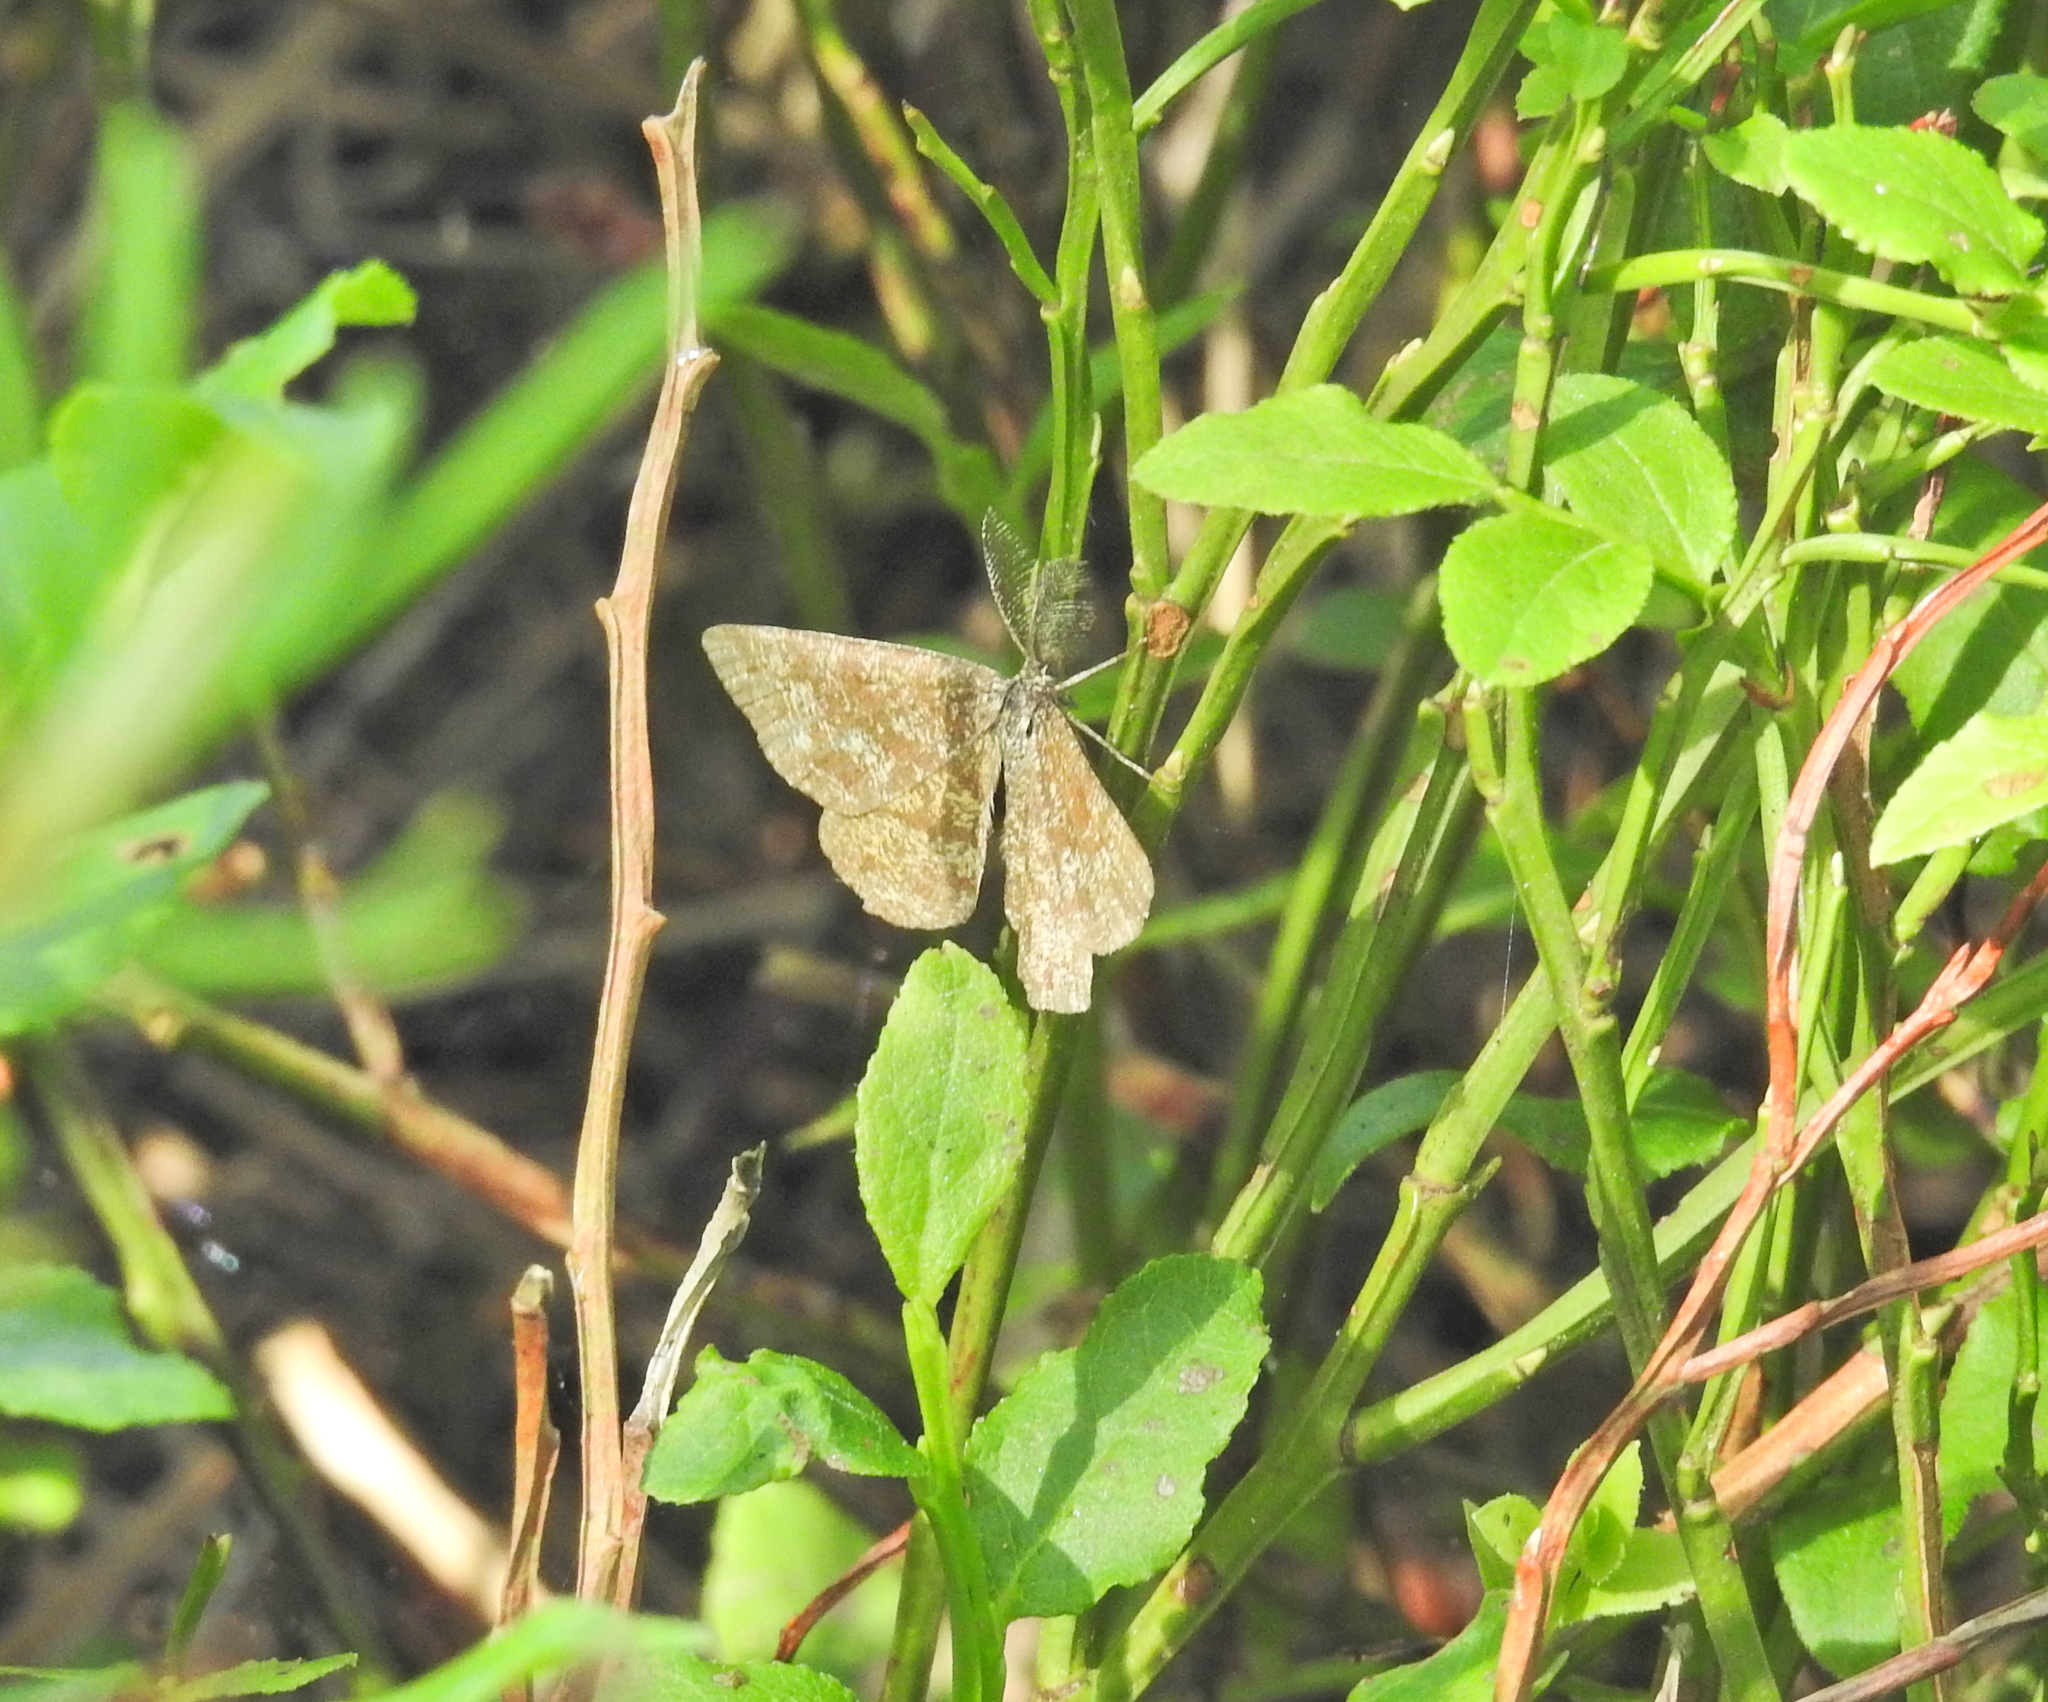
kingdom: Animalia
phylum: Arthropoda
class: Insecta
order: Lepidoptera
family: Geometridae
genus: Ematurga
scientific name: Ematurga atomaria
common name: Common heath
